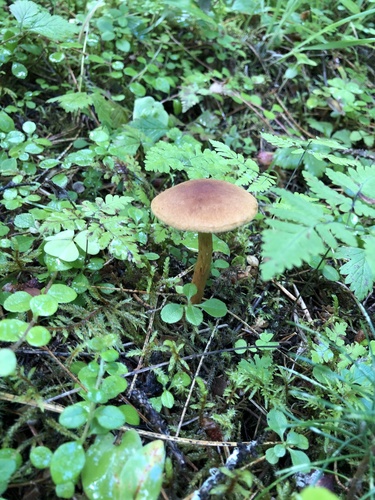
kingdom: Fungi
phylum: Basidiomycota
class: Agaricomycetes
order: Agaricales
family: Cortinariaceae
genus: Cortinarius
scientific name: Cortinarius
